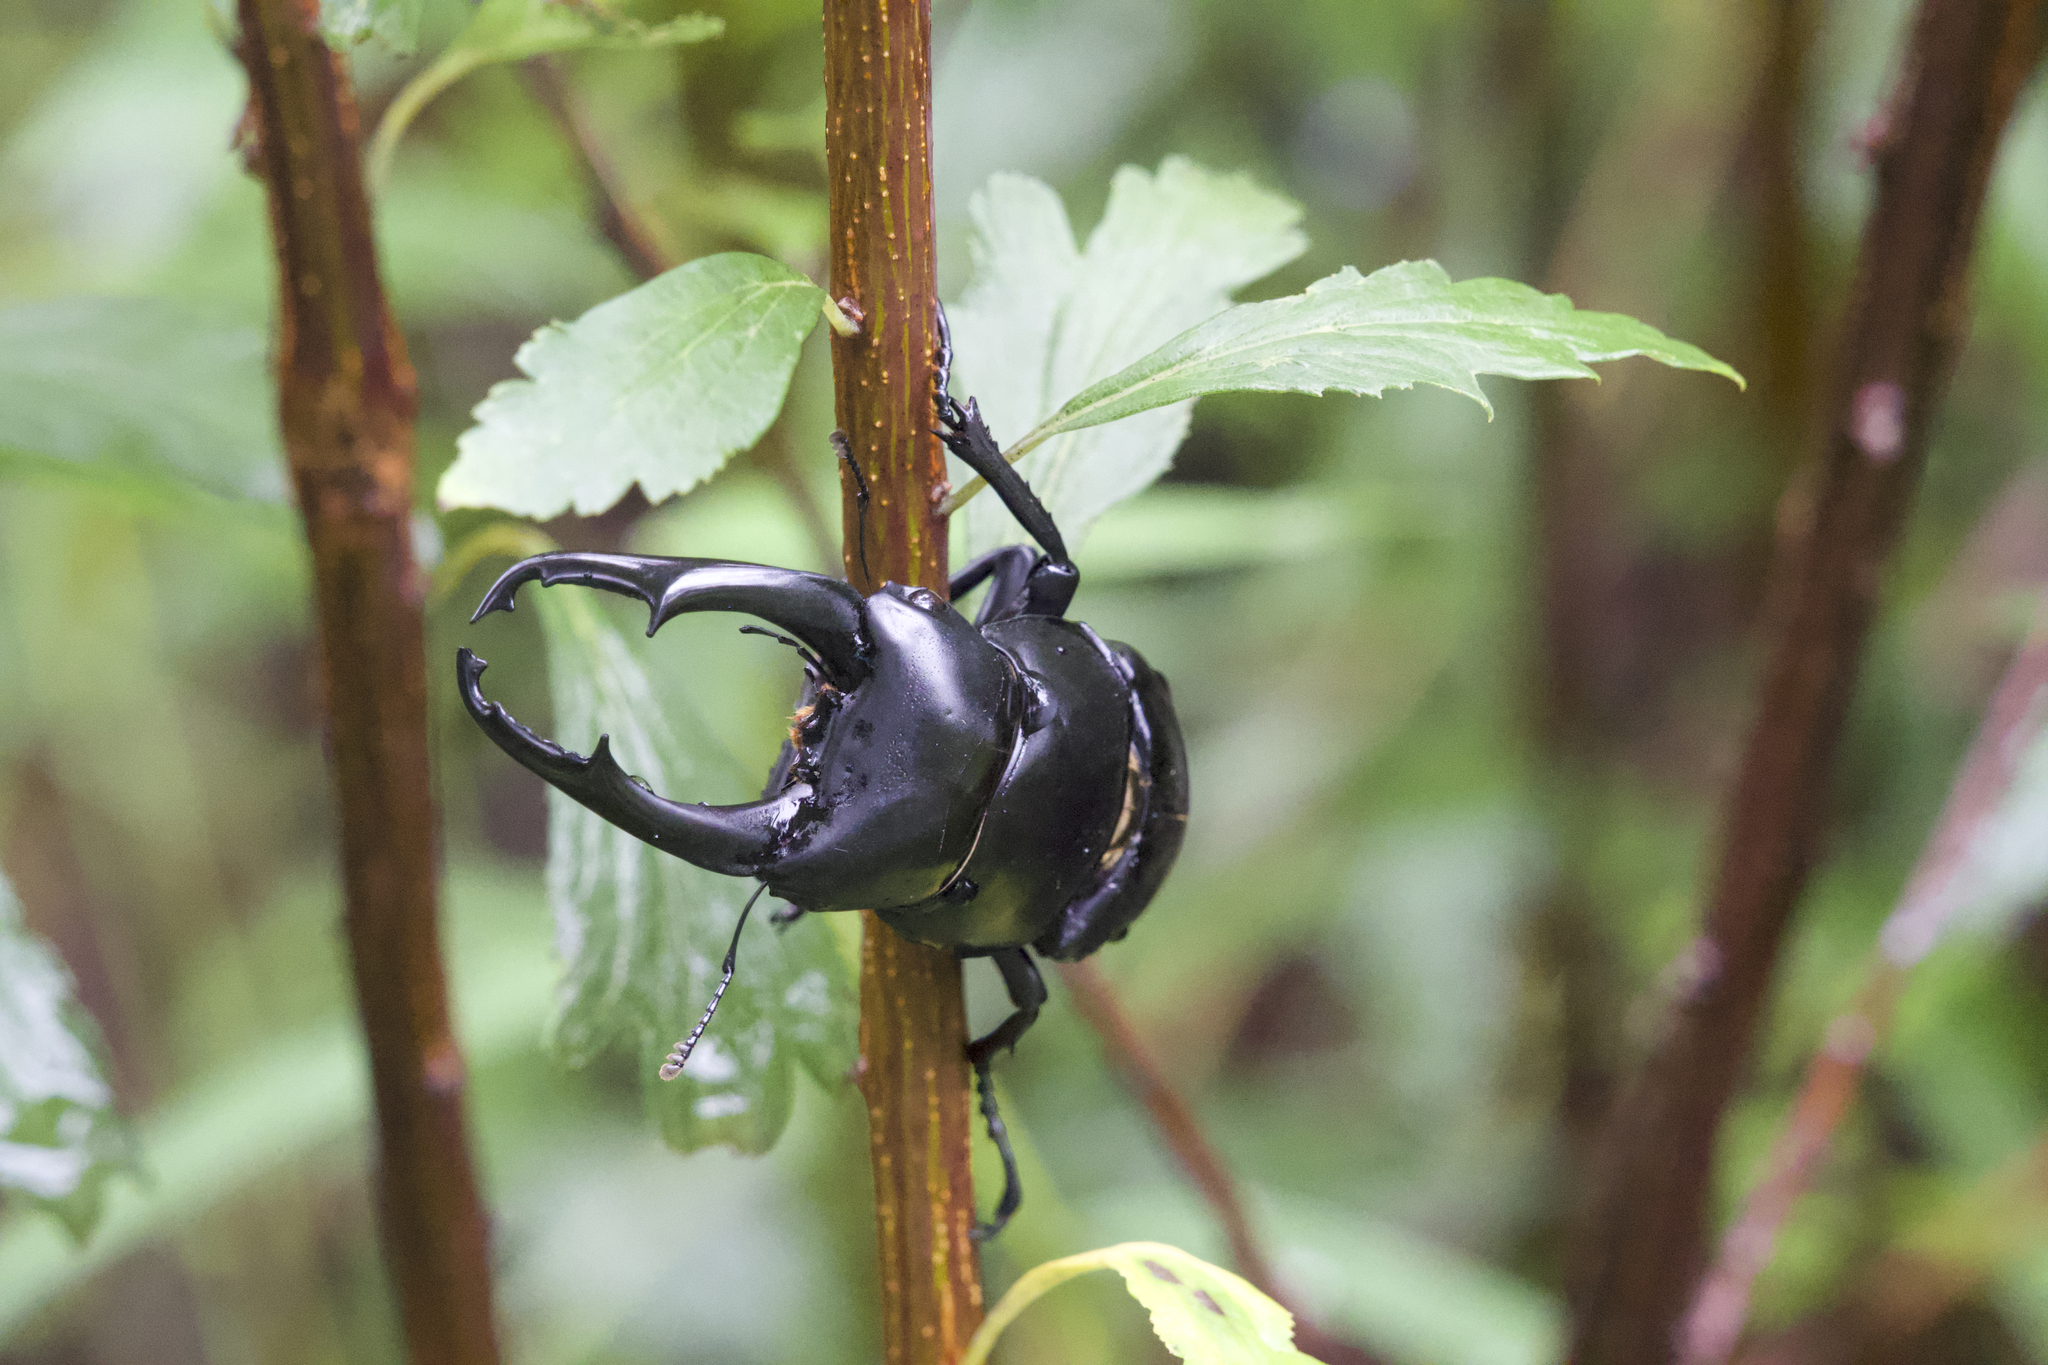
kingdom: Animalia
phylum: Arthropoda
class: Insecta
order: Coleoptera
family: Lucanidae
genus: Dorcus
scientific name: Dorcus nepalensis
